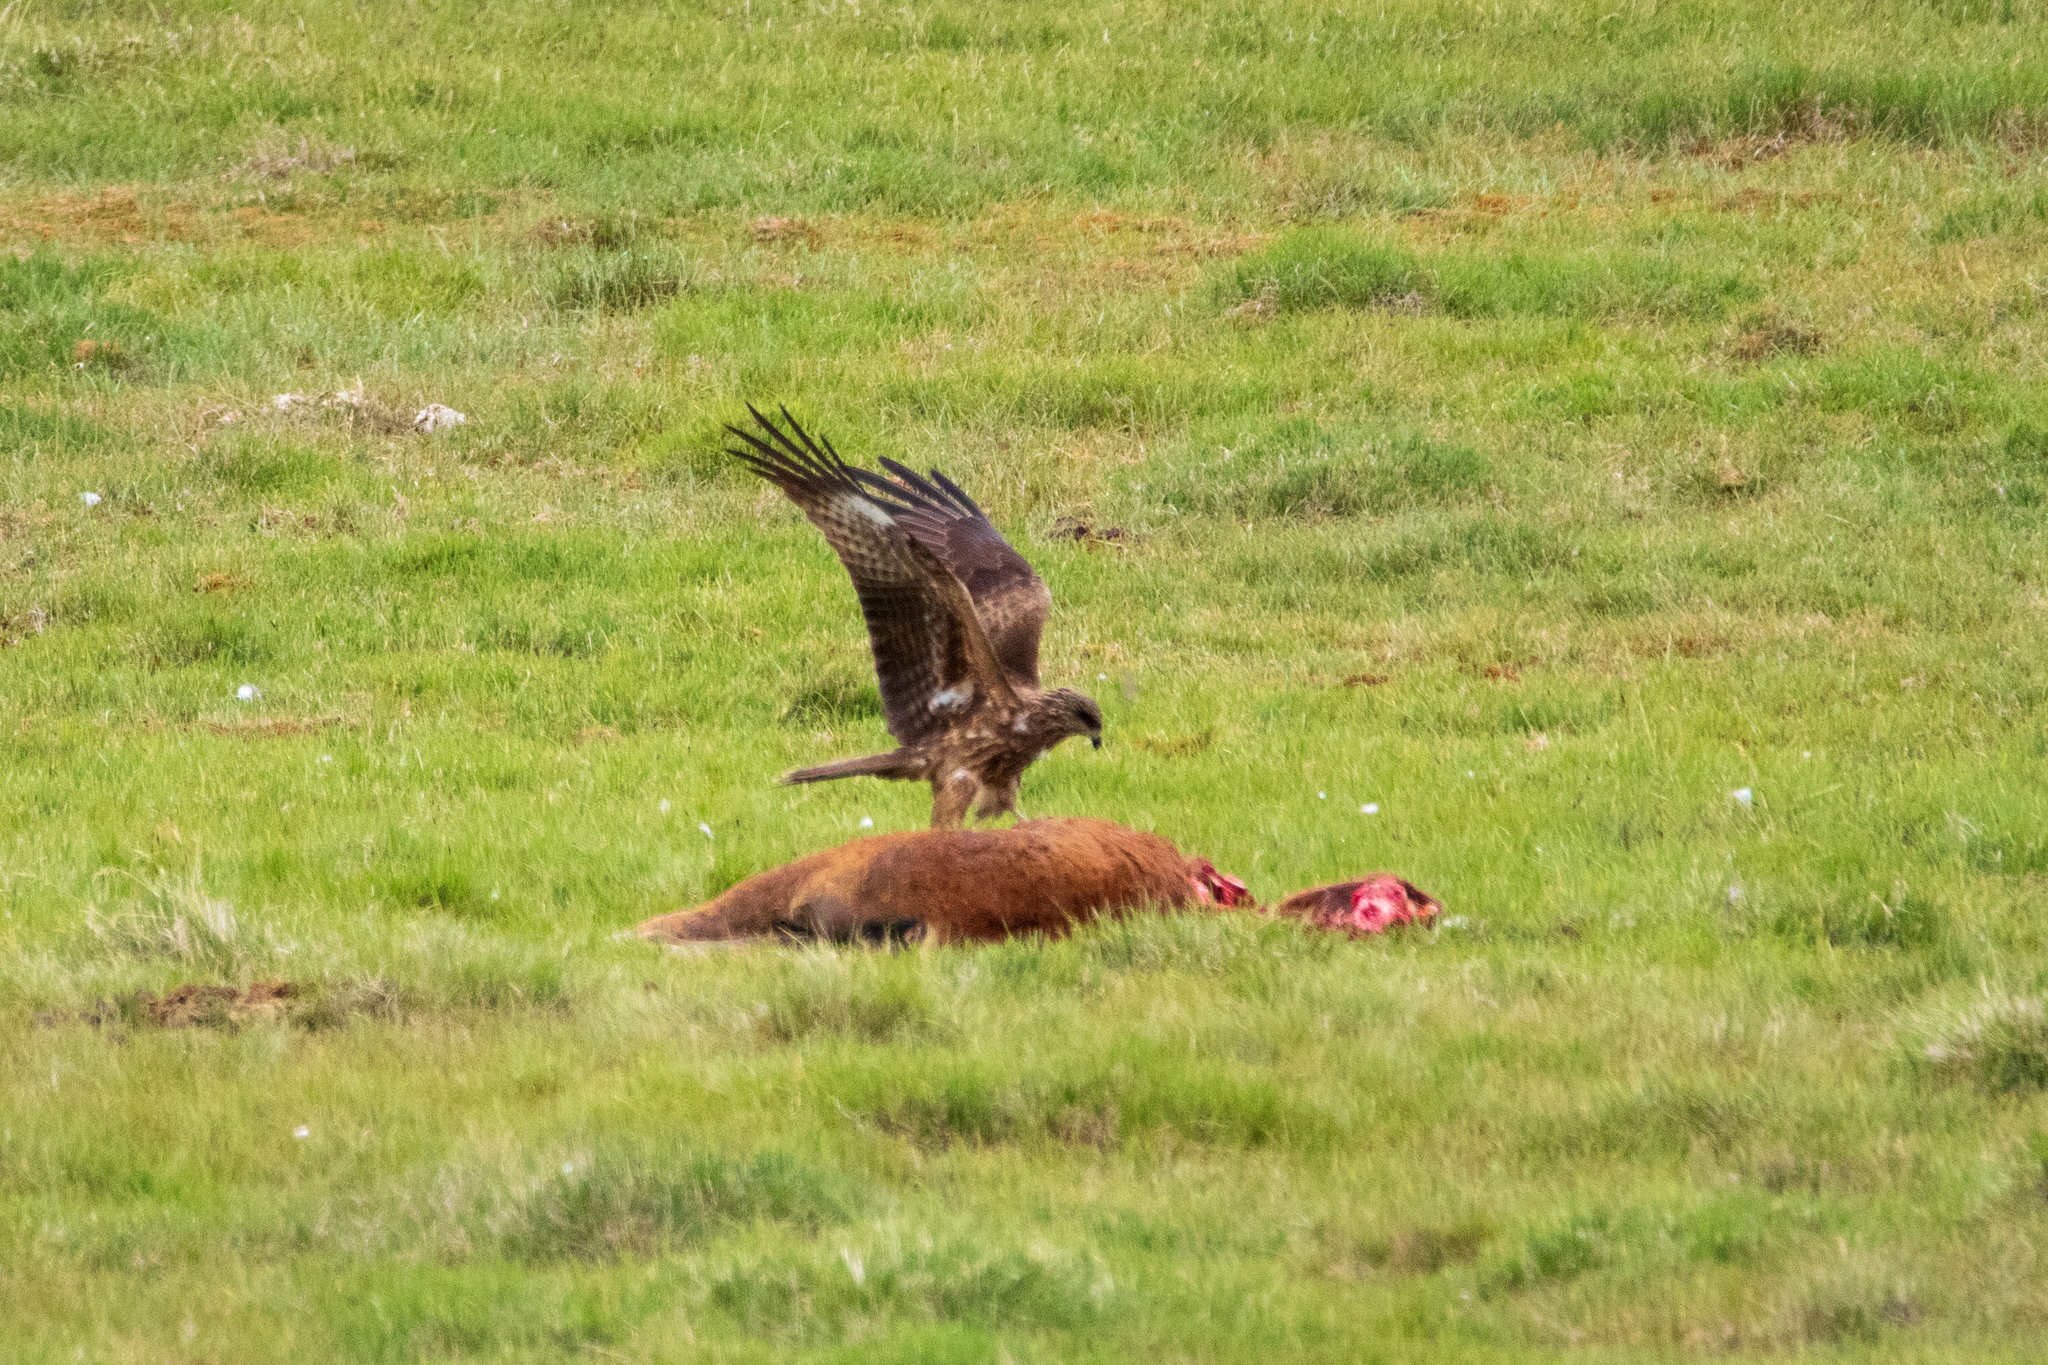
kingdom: Animalia
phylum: Chordata
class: Aves
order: Accipitriformes
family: Accipitridae
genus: Milvus
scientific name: Milvus migrans
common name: Black kite
